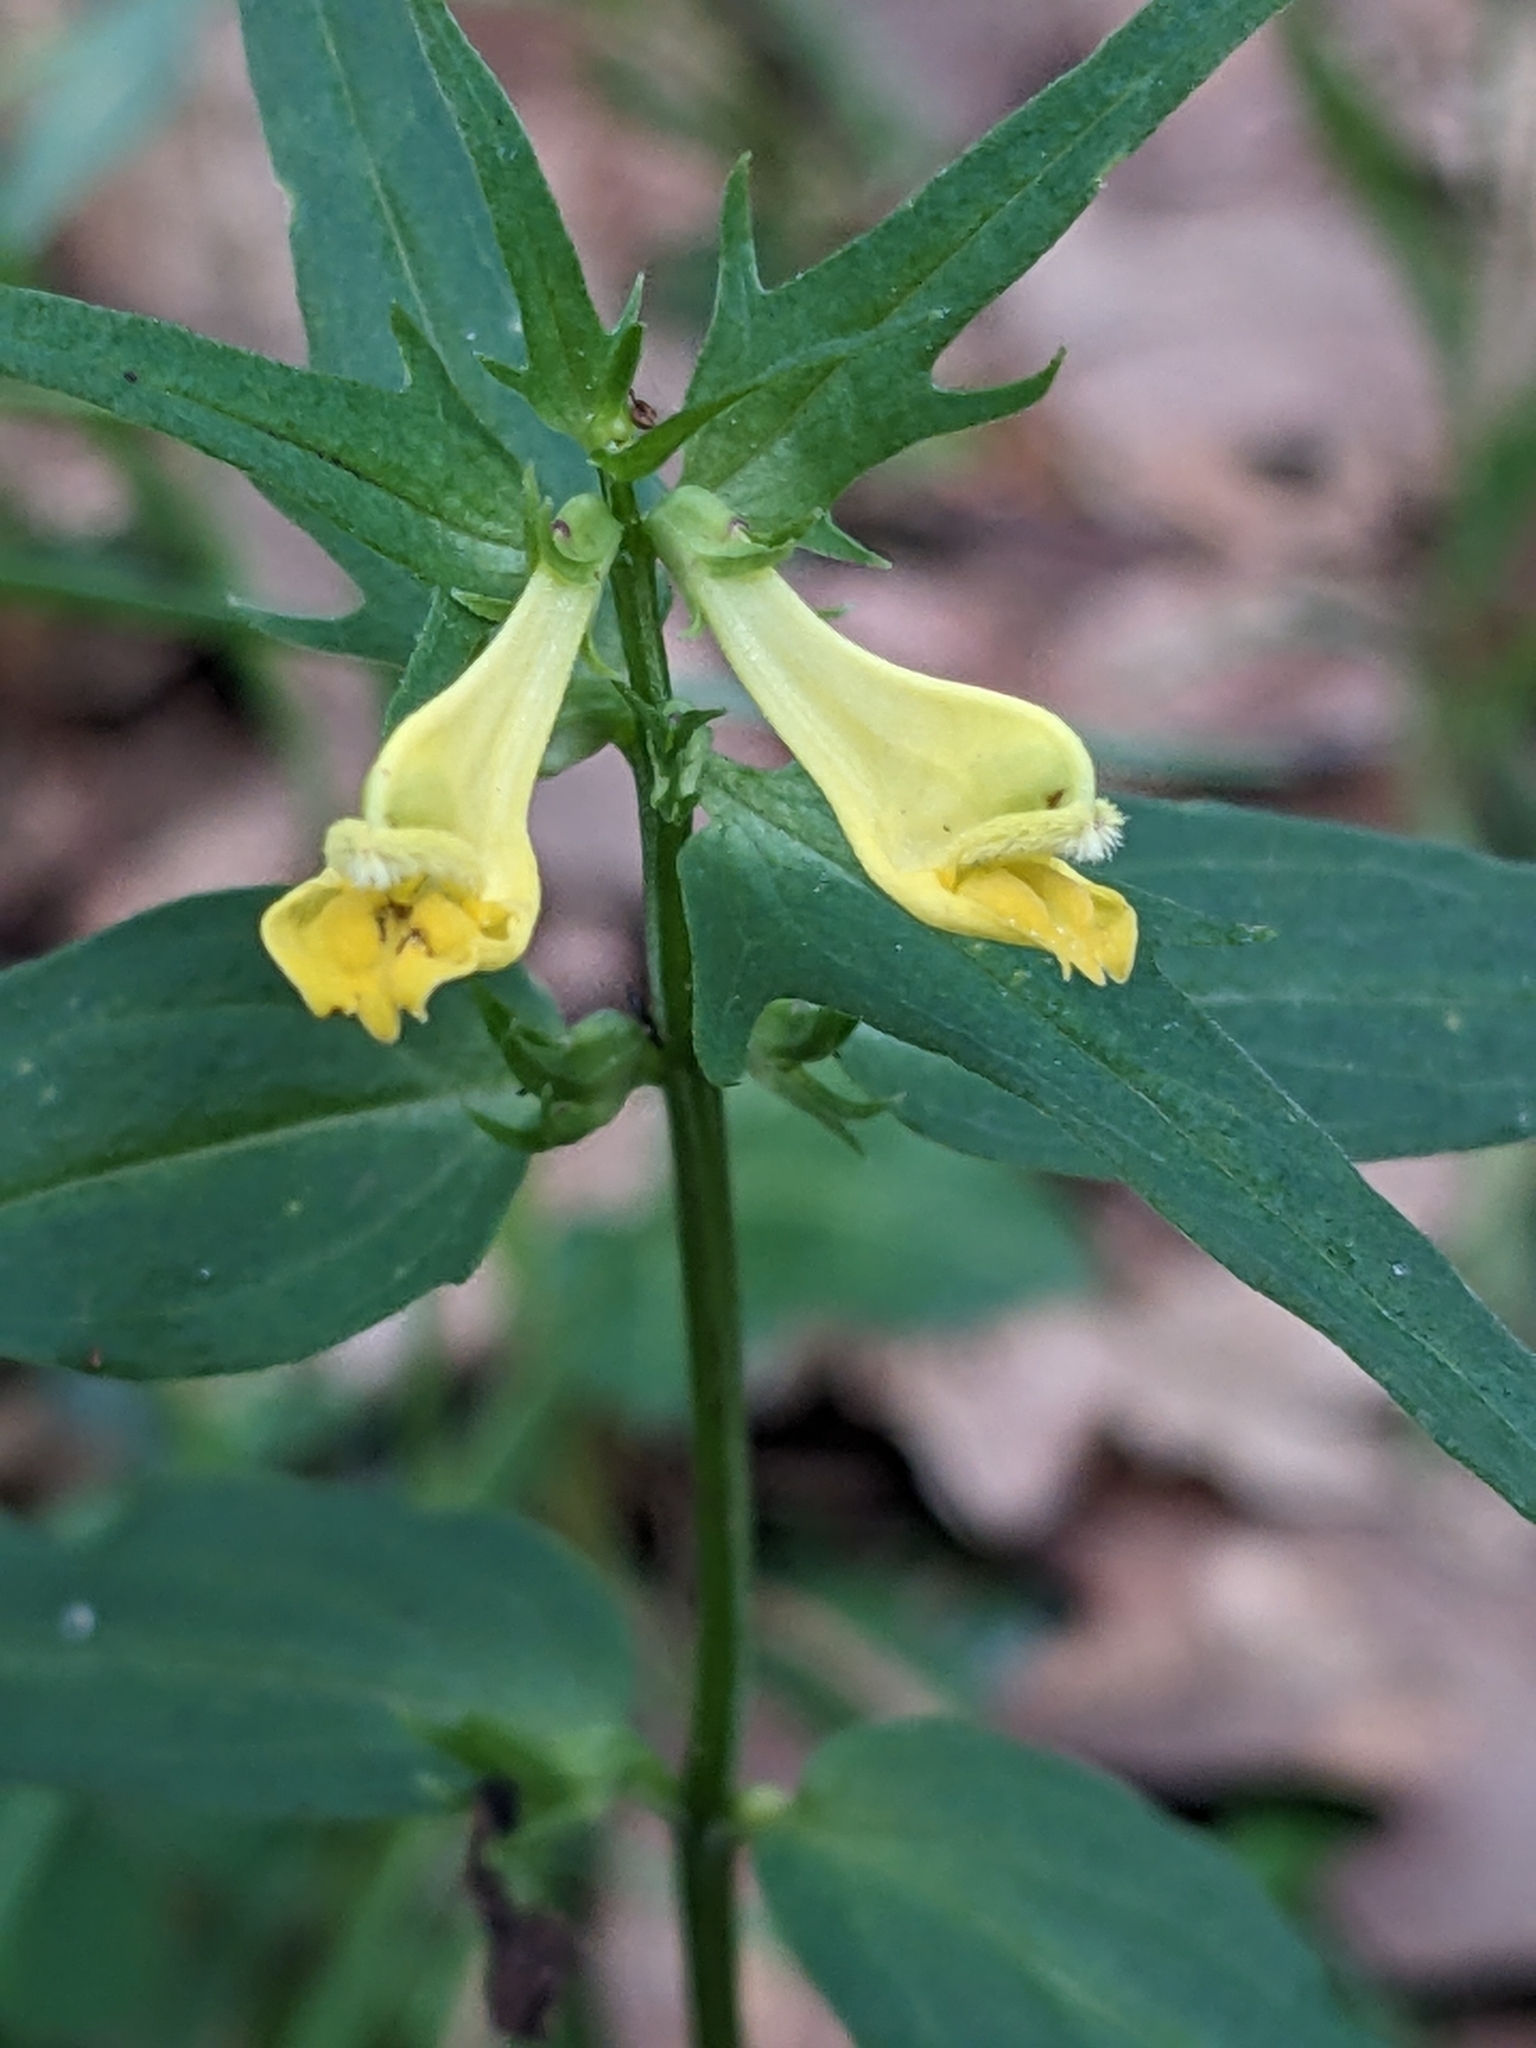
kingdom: Plantae
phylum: Tracheophyta
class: Magnoliopsida
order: Lamiales
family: Orobanchaceae
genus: Melampyrum
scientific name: Melampyrum pratense
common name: Common cow-wheat
